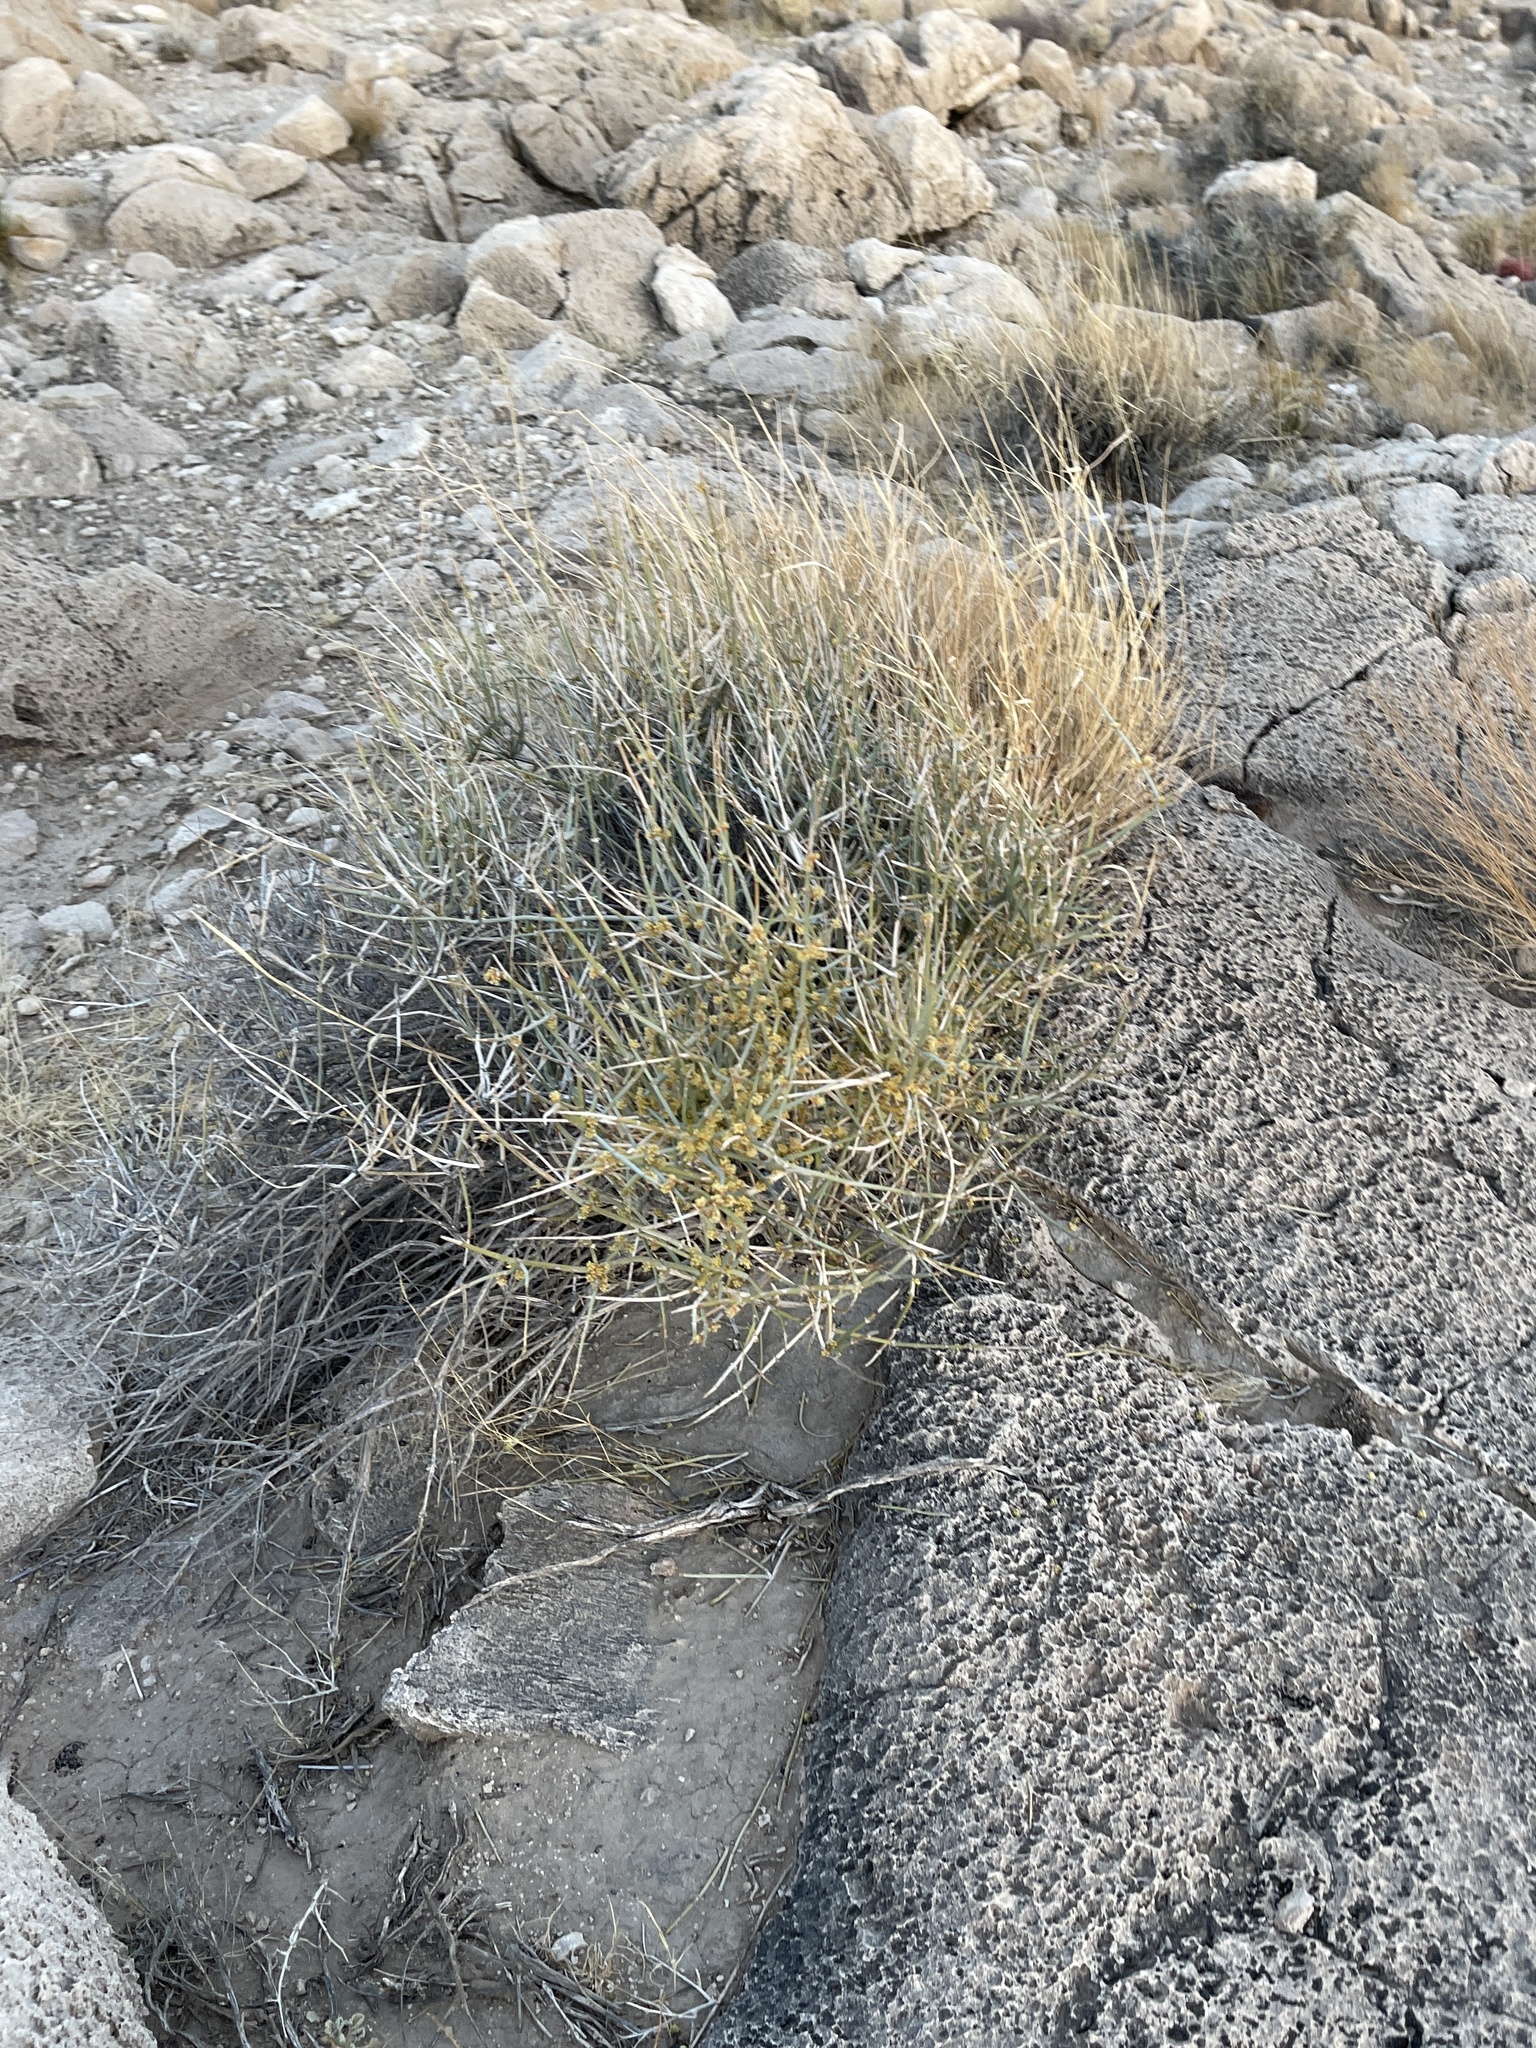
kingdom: Plantae
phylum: Tracheophyta
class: Gnetopsida
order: Ephedrales
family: Ephedraceae
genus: Ephedra
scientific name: Ephedra nevadensis
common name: Gray ephedra
